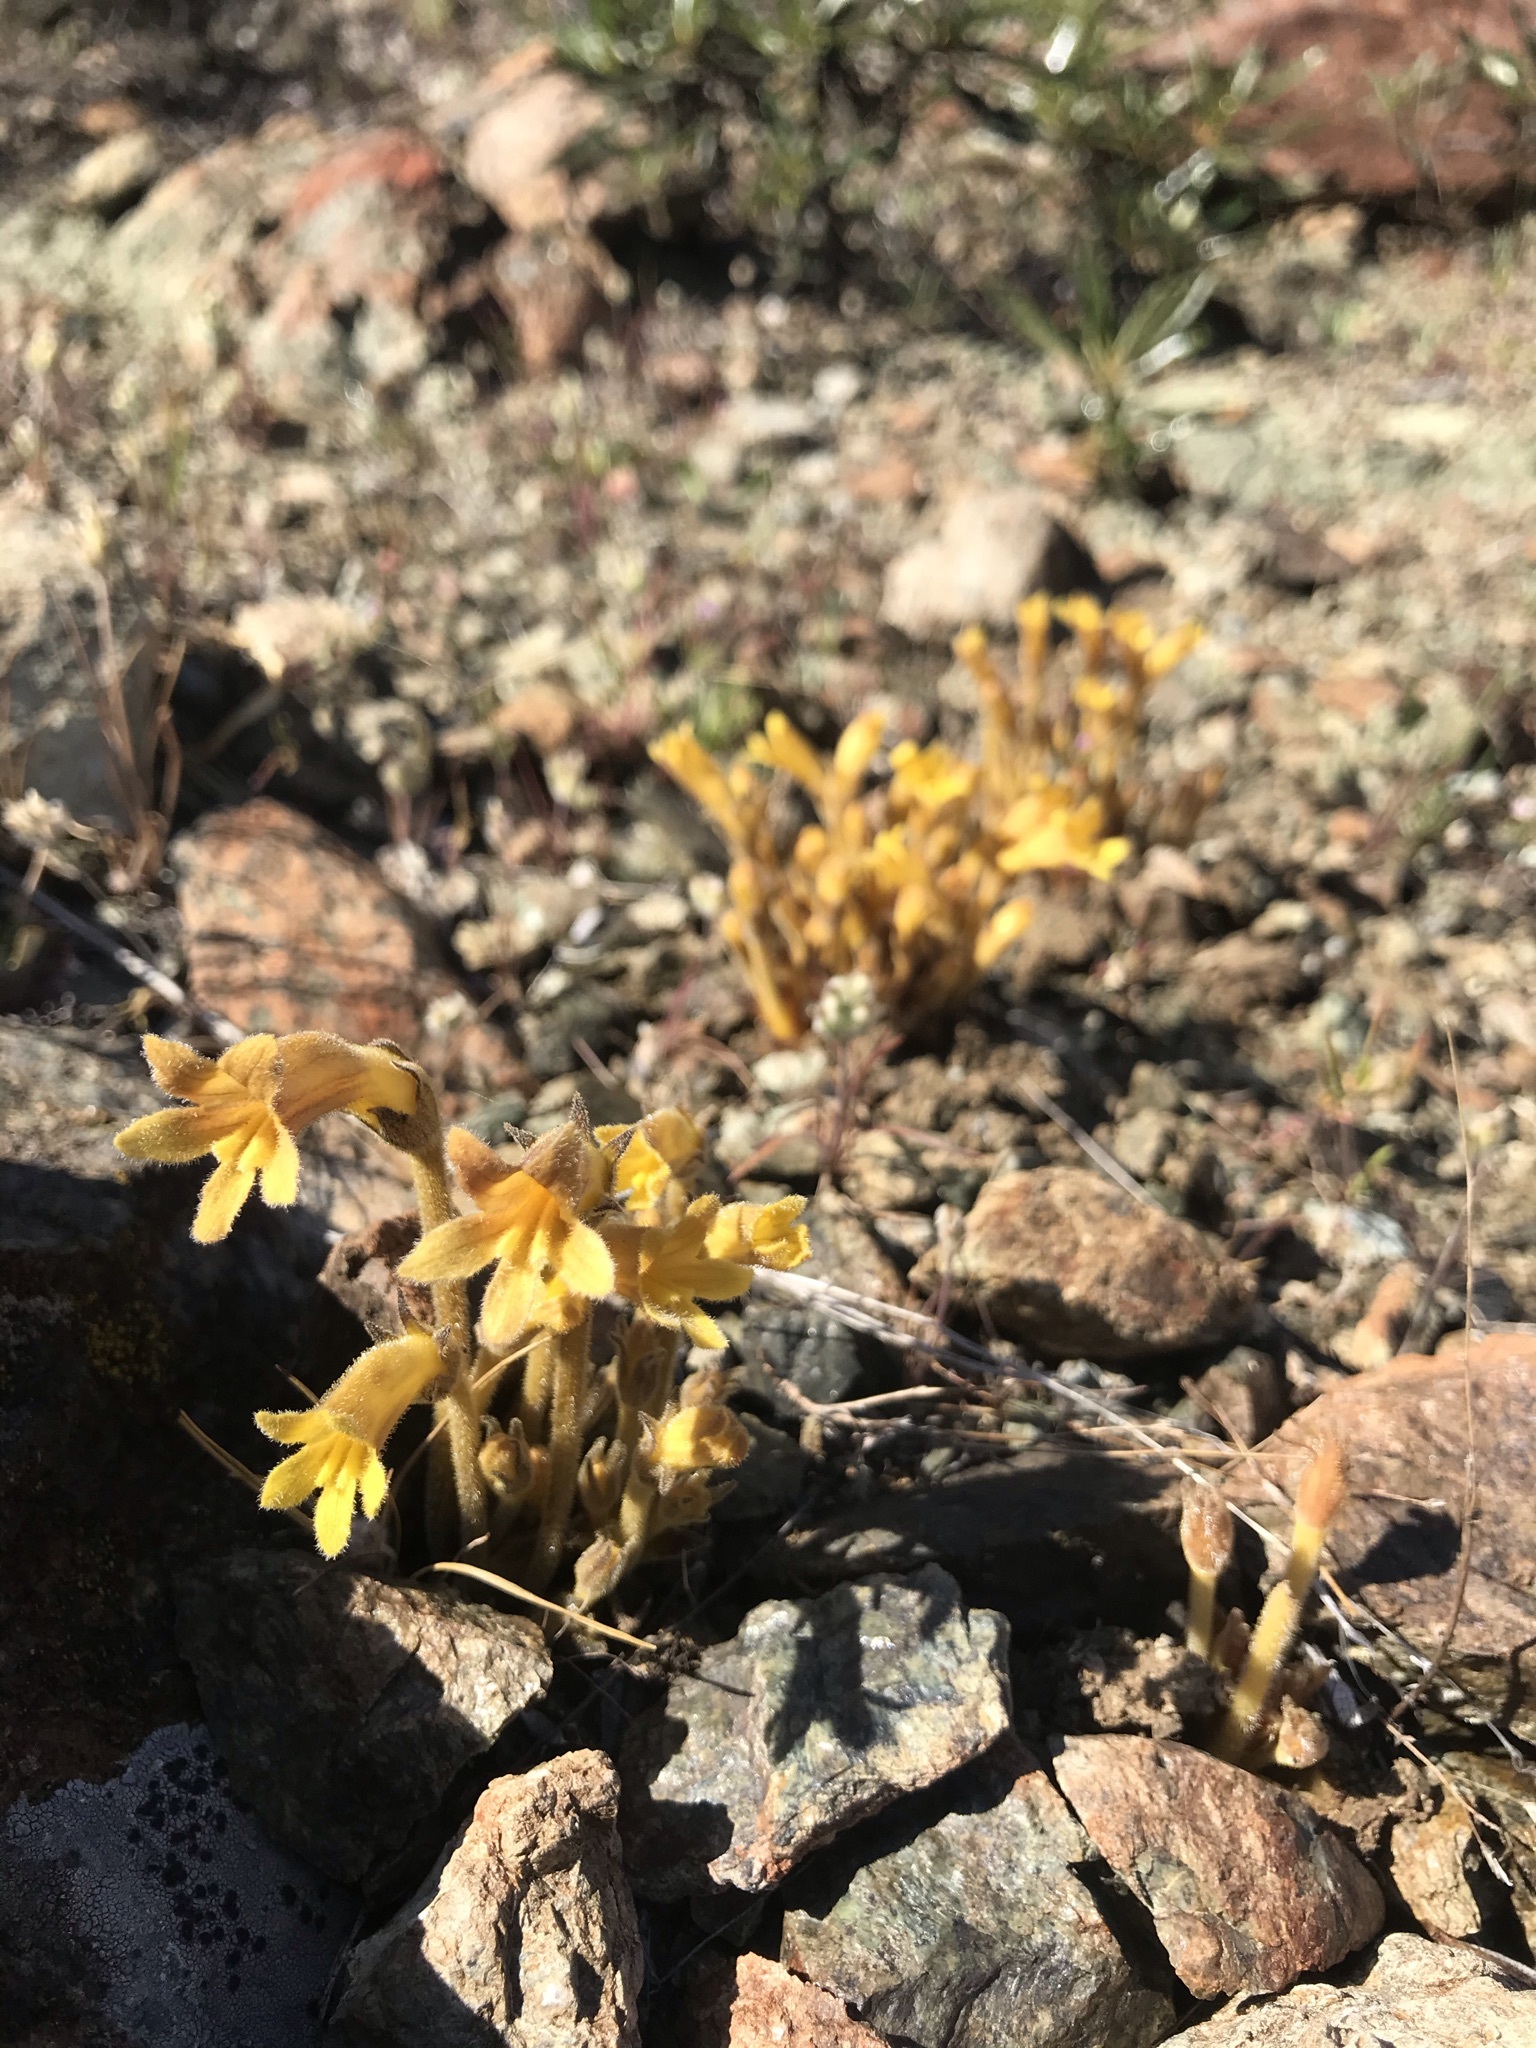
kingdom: Plantae
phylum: Tracheophyta
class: Magnoliopsida
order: Lamiales
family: Orobanchaceae
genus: Aphyllon
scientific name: Aphyllon franciscanum
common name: San francisco broomrape
